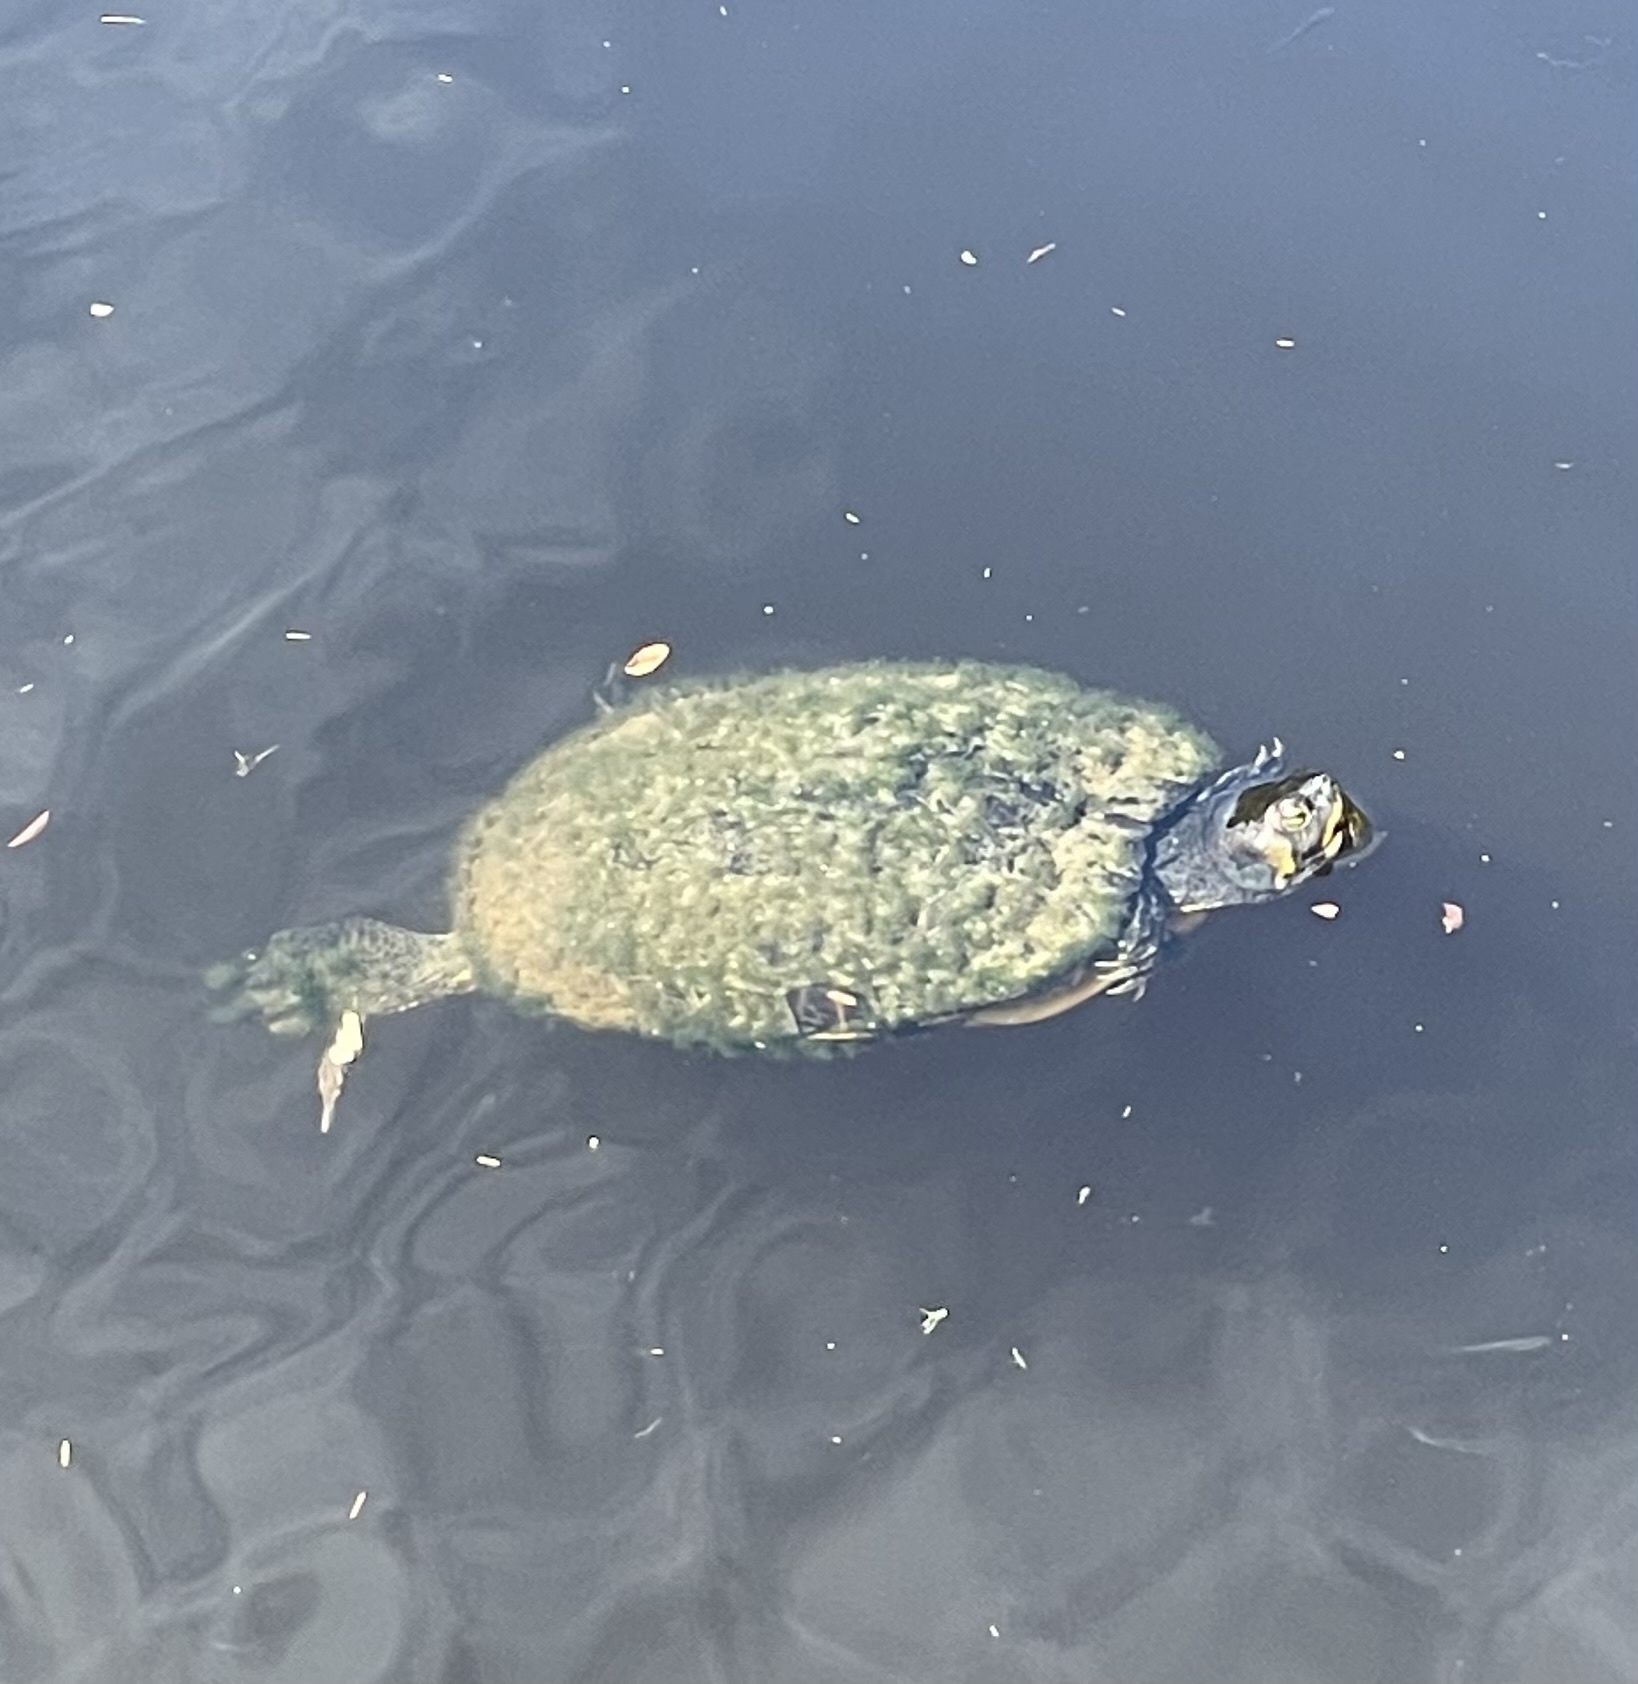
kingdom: Animalia
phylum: Chordata
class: Testudines
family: Emydidae
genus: Trachemys
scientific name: Trachemys scripta
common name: Slider
